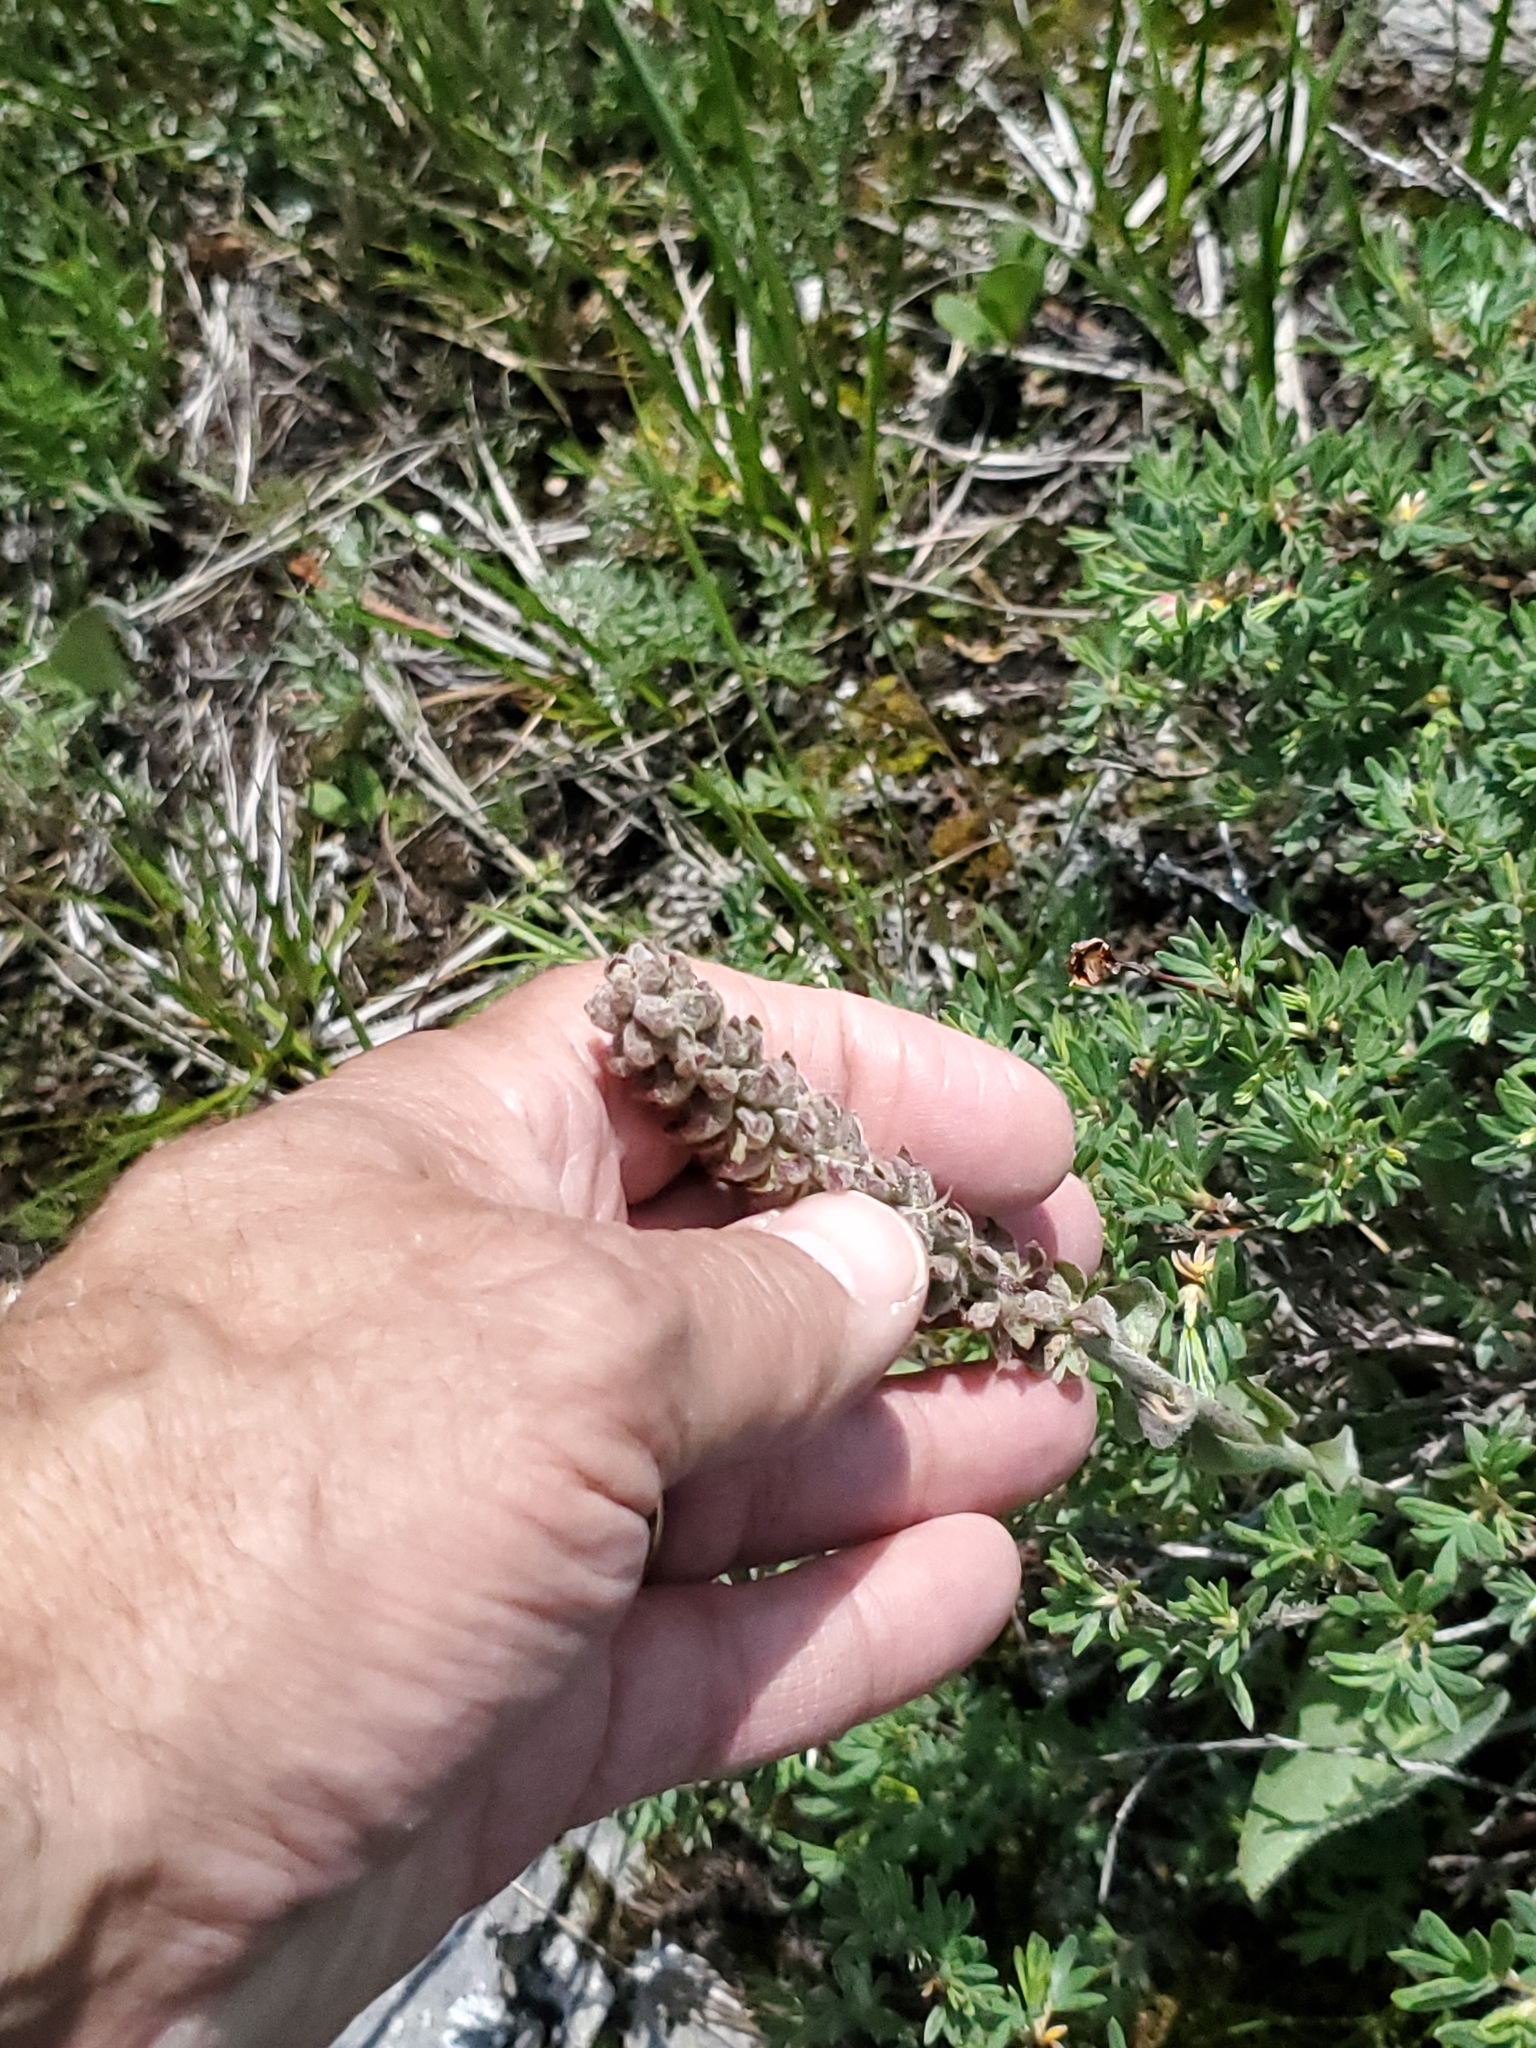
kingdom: Plantae
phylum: Tracheophyta
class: Magnoliopsida
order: Lamiales
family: Plantaginaceae
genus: Synthyris
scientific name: Synthyris wyomingensis
